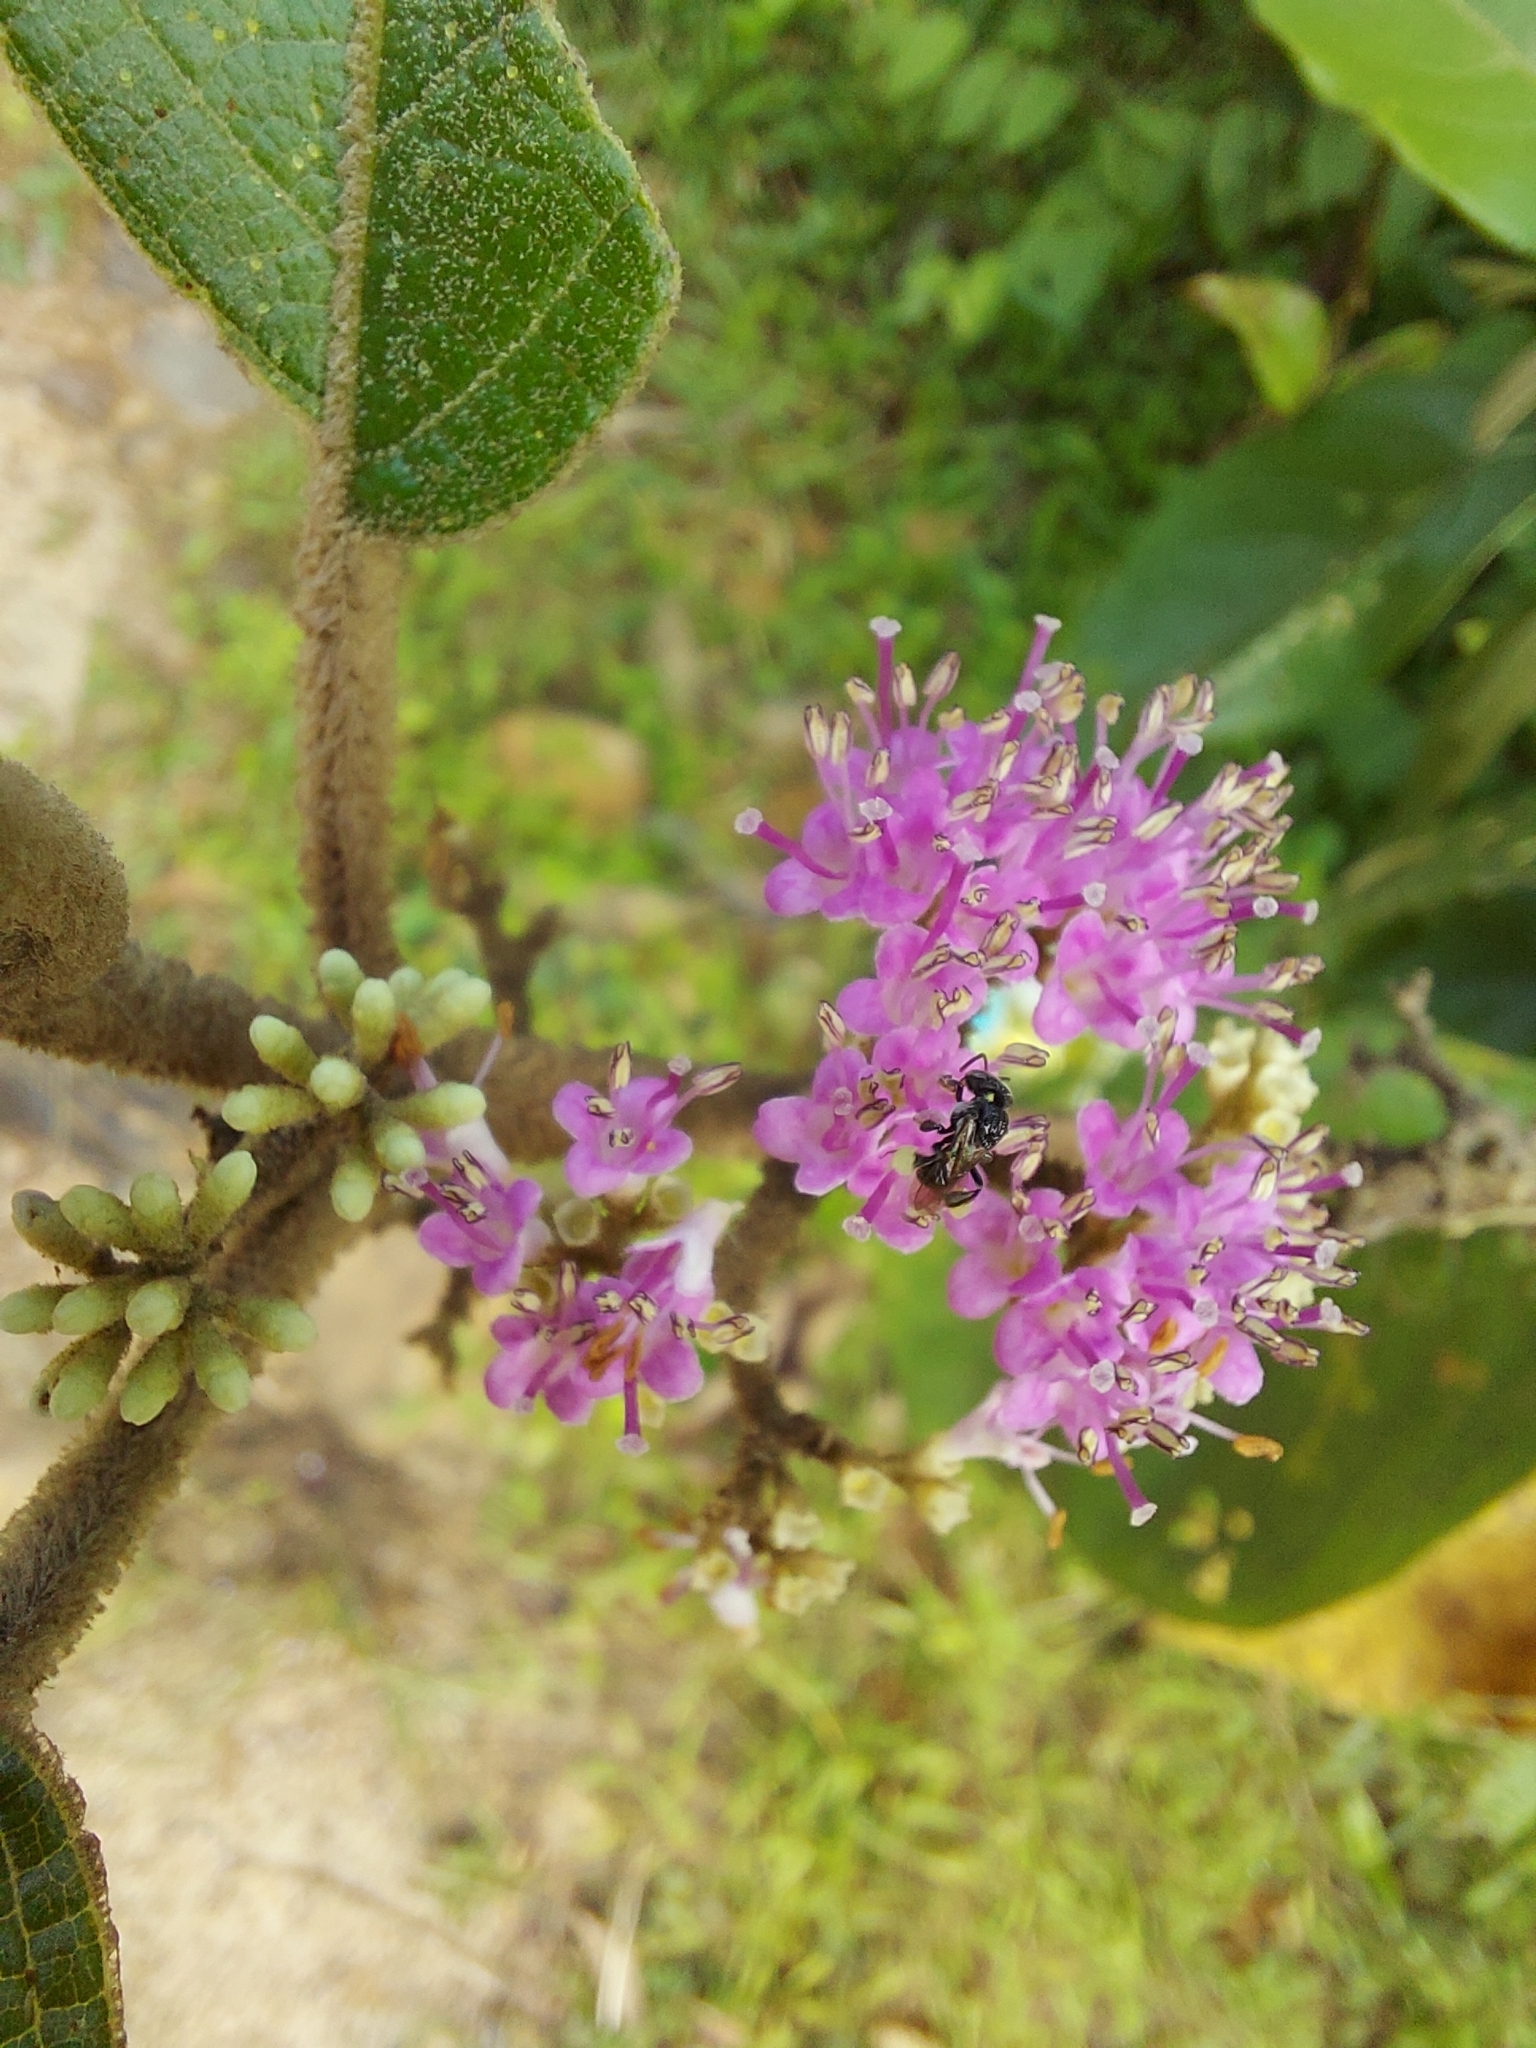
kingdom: Plantae
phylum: Tracheophyta
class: Magnoliopsida
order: Lamiales
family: Lamiaceae
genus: Callicarpa
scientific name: Callicarpa tomentosa
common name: Great woolly malayan-lilac
